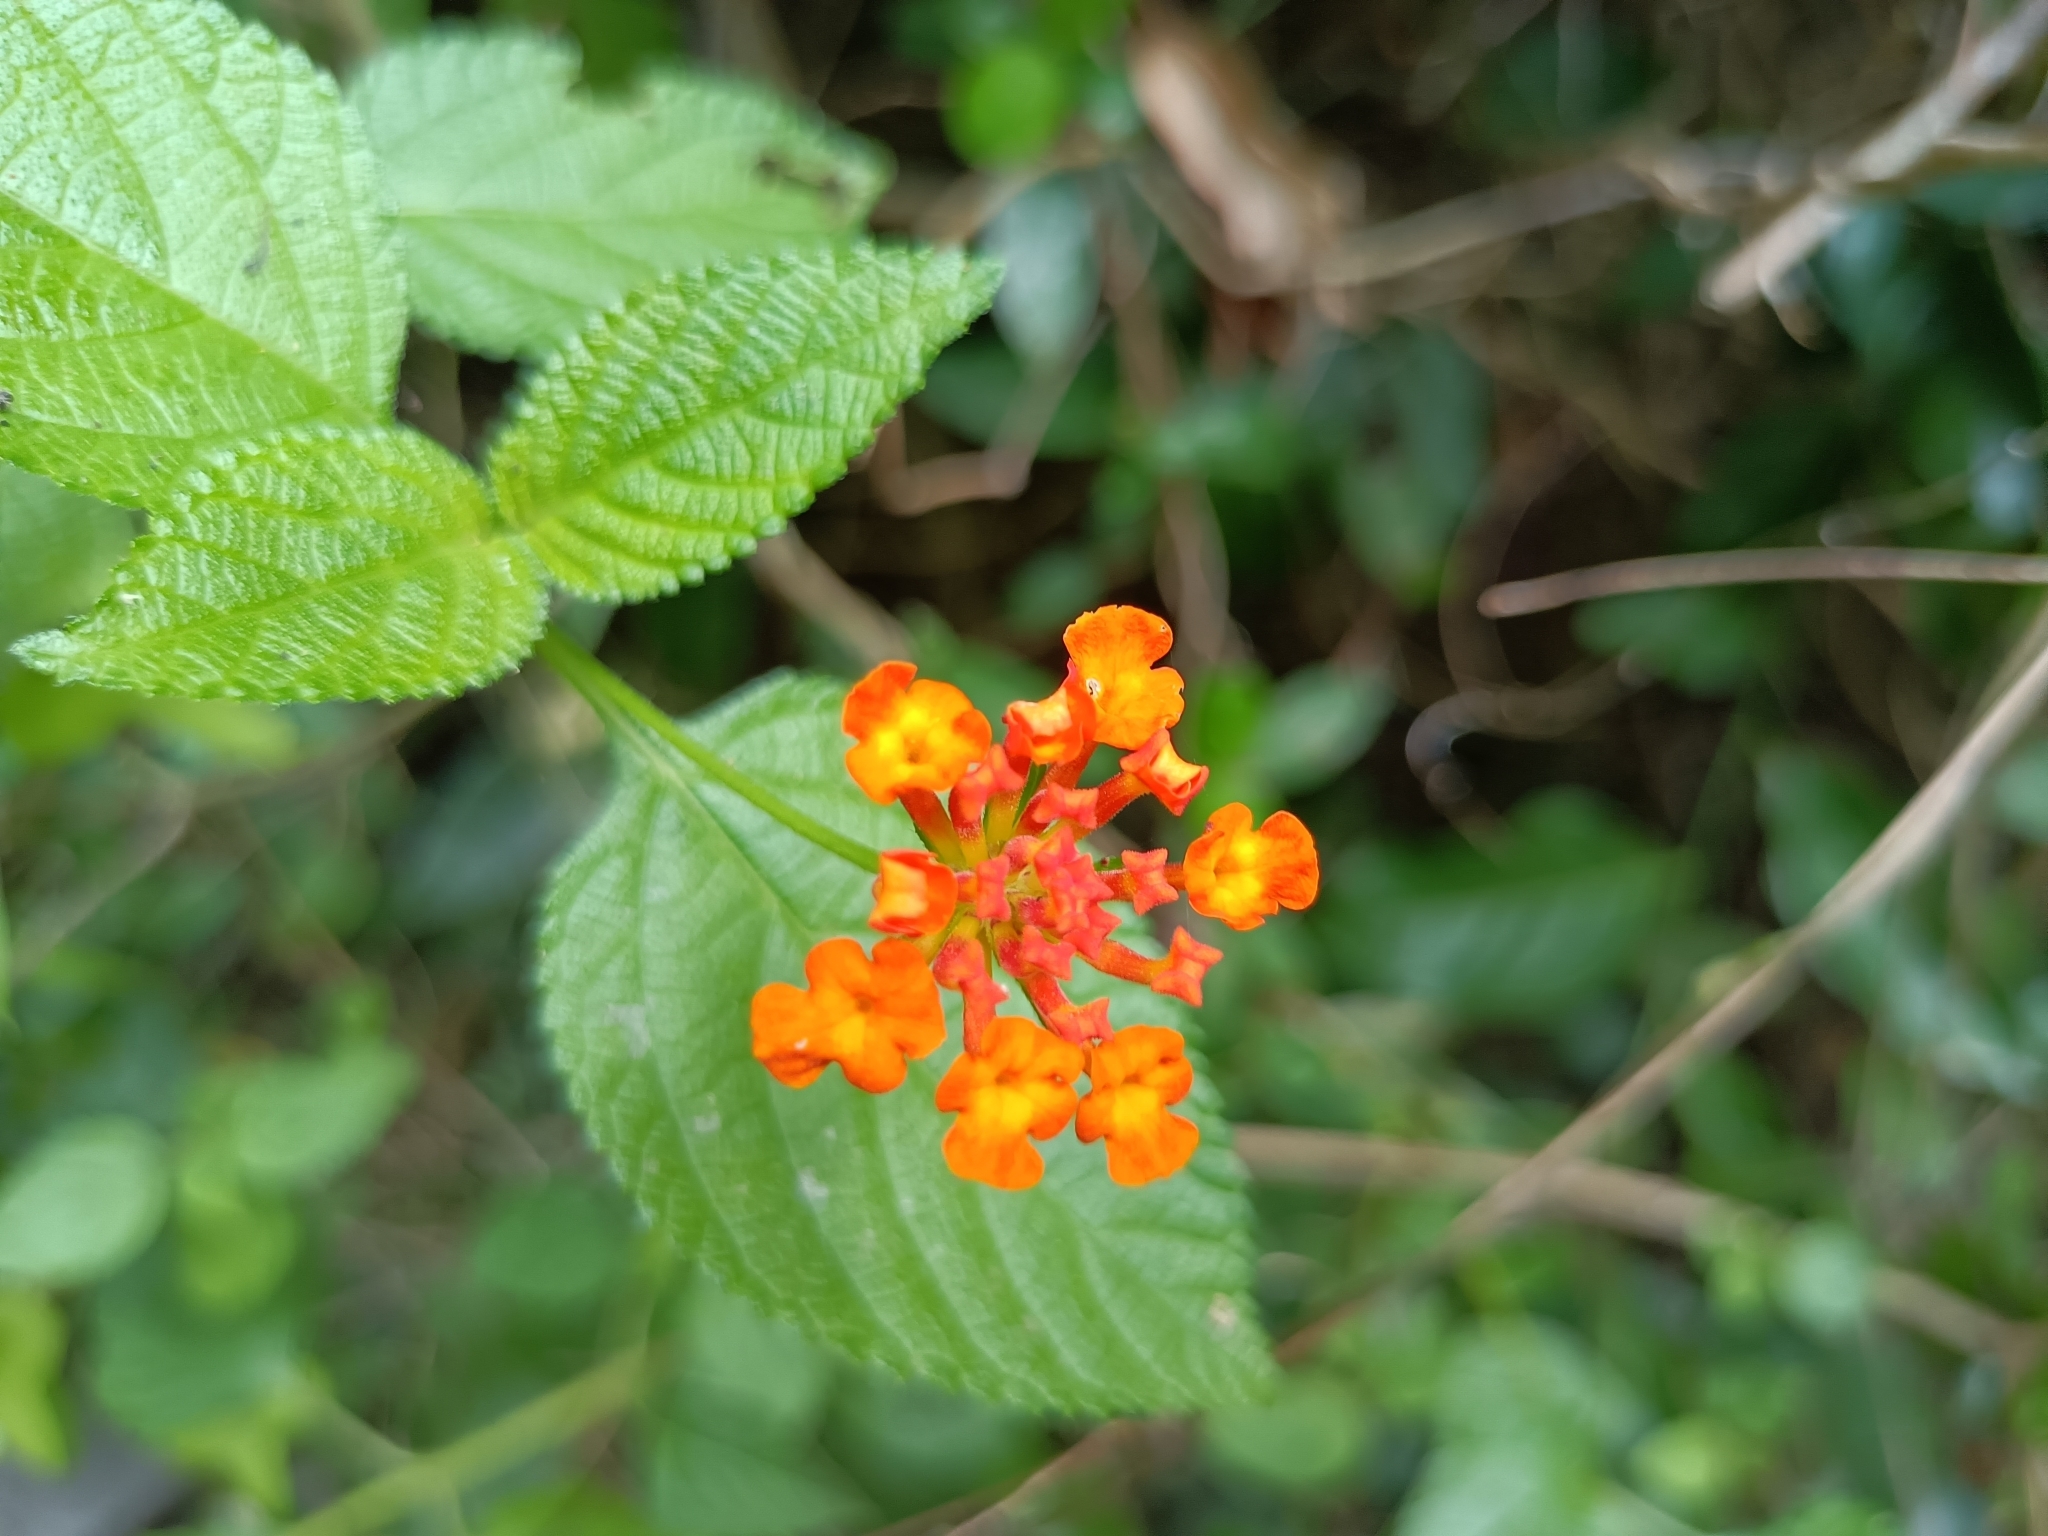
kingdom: Plantae
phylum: Tracheophyta
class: Magnoliopsida
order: Lamiales
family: Verbenaceae
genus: Lantana
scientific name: Lantana camara
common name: Lantana
